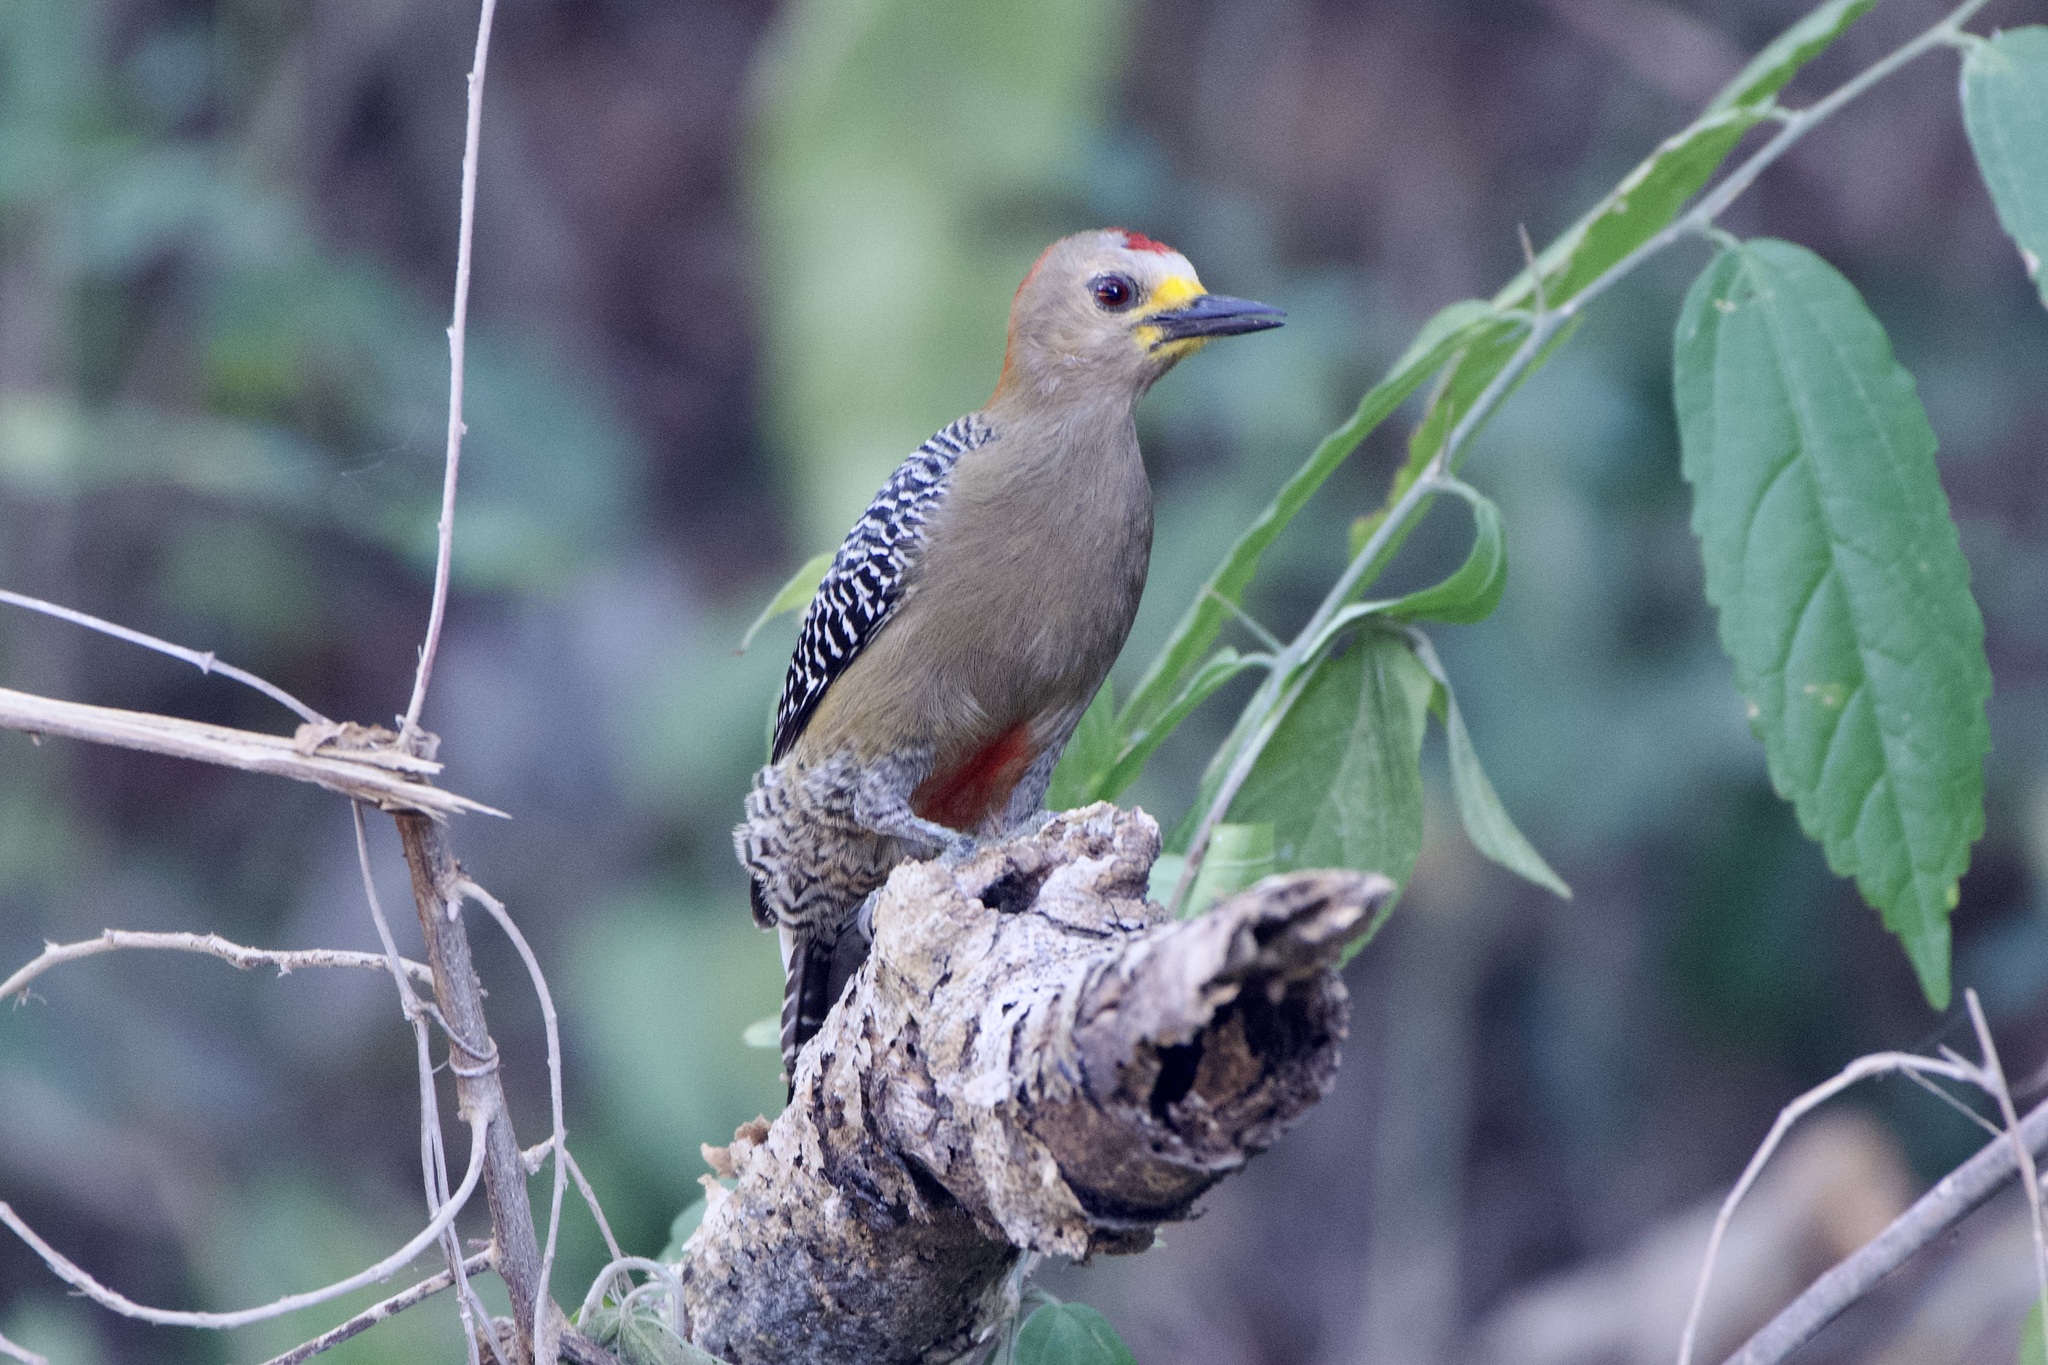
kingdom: Animalia
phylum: Chordata
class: Aves
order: Piciformes
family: Picidae
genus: Melanerpes
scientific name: Melanerpes pygmaeus
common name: Yucatan woodpecker
